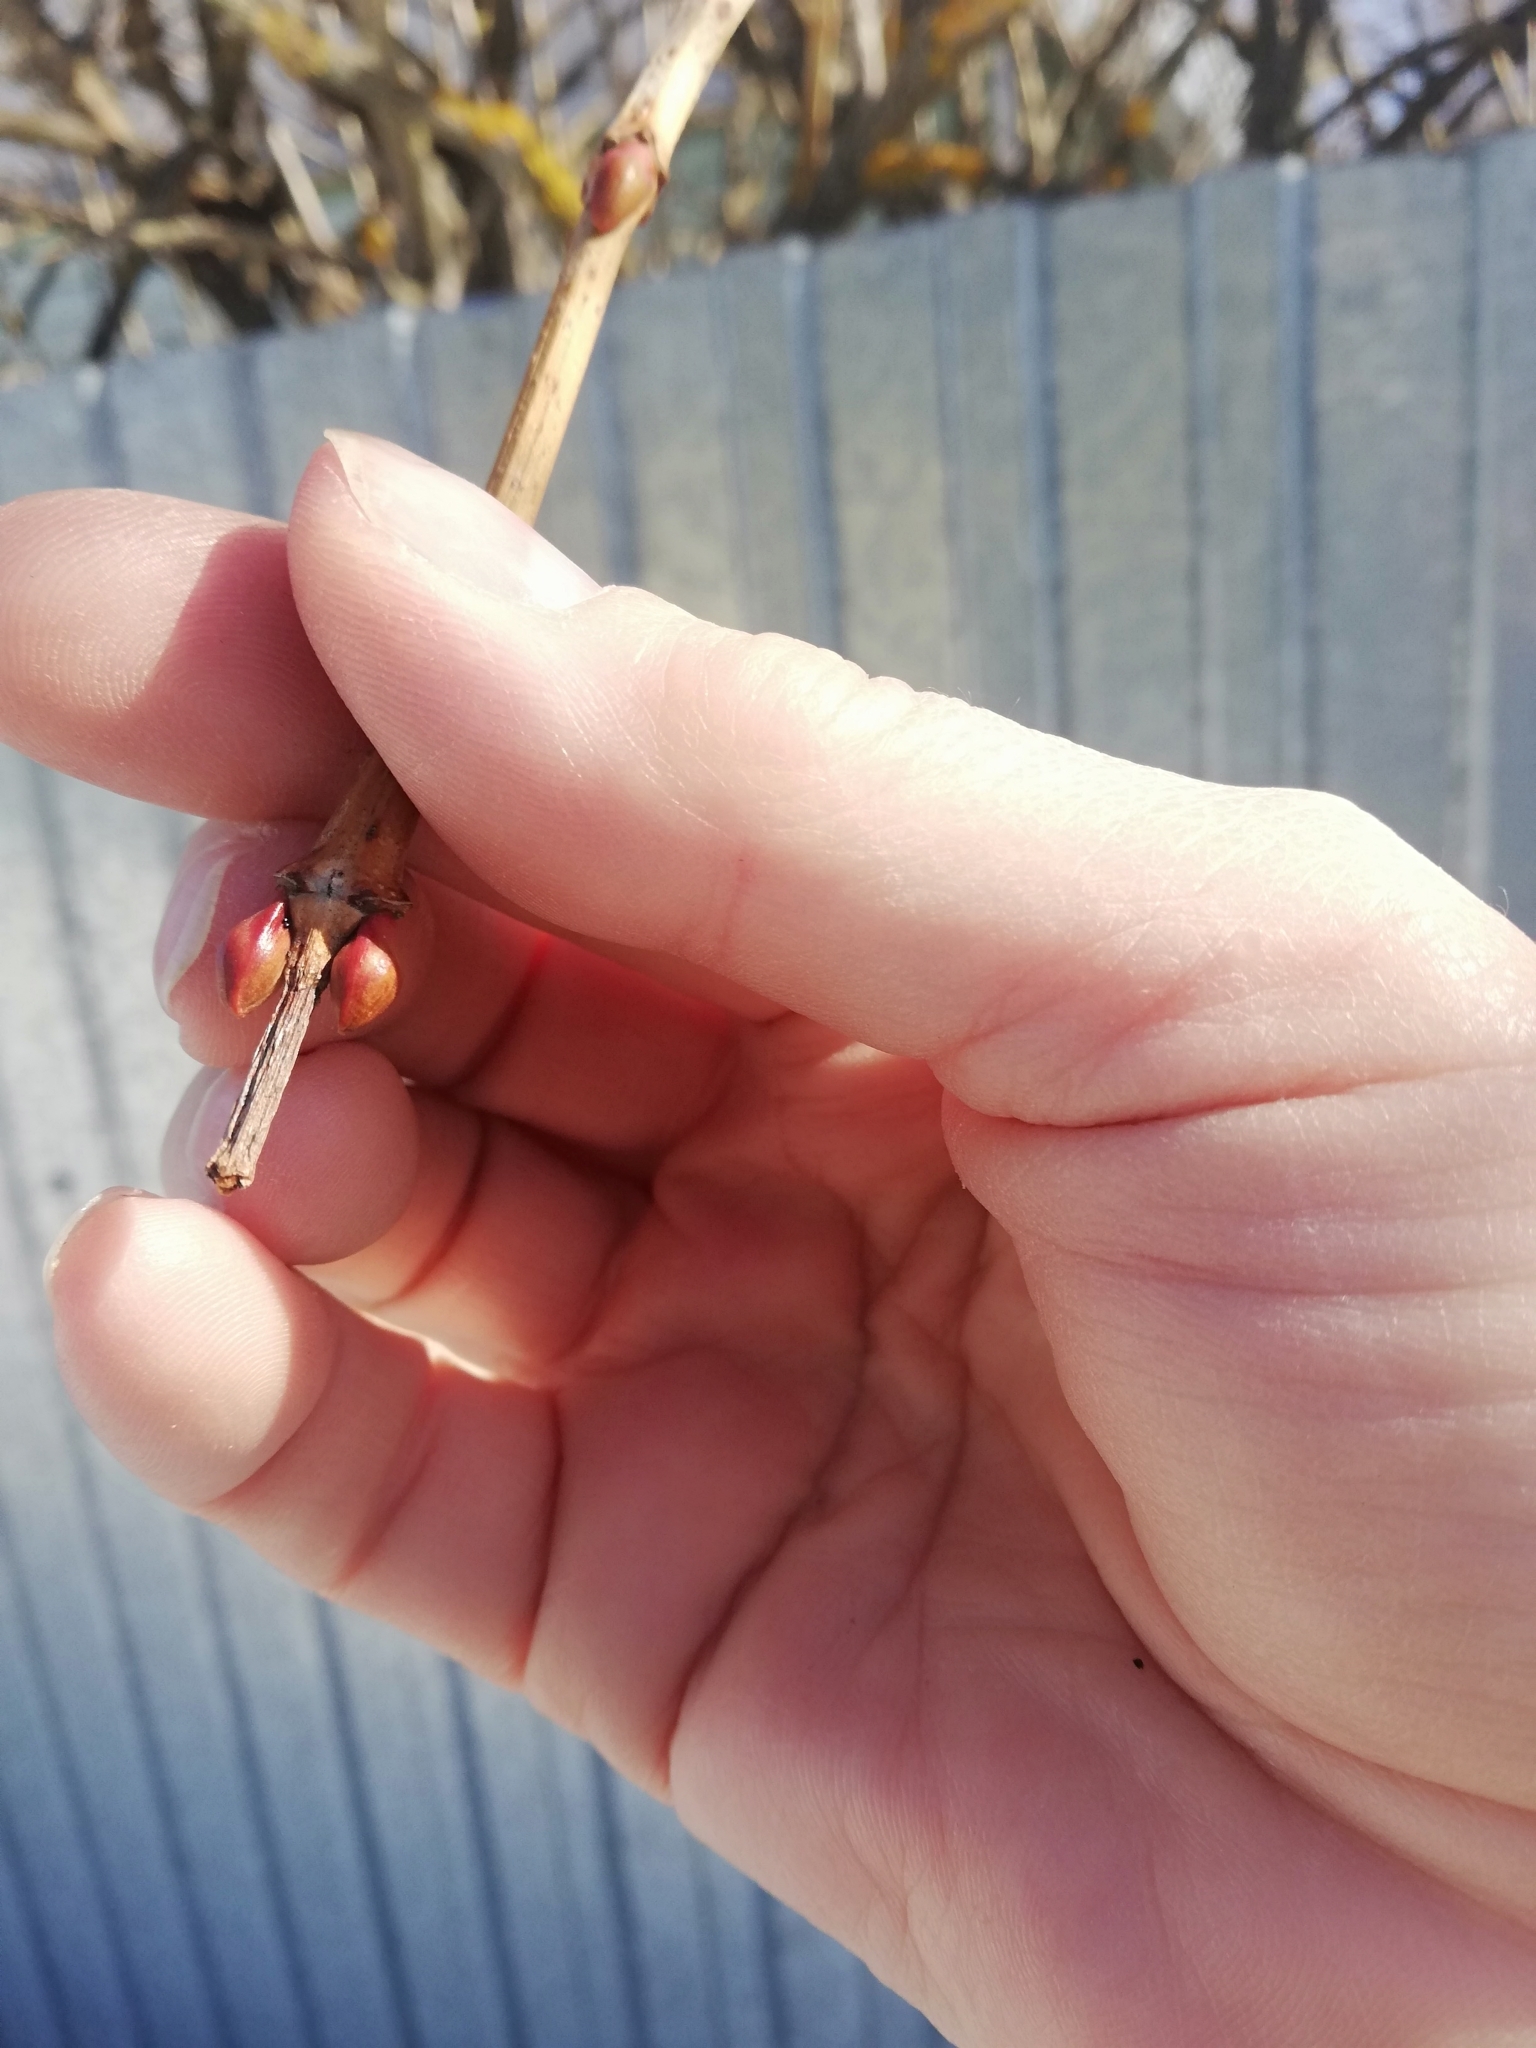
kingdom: Plantae
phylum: Tracheophyta
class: Magnoliopsida
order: Dipsacales
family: Viburnaceae
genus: Viburnum
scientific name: Viburnum opulus
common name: Guelder-rose
